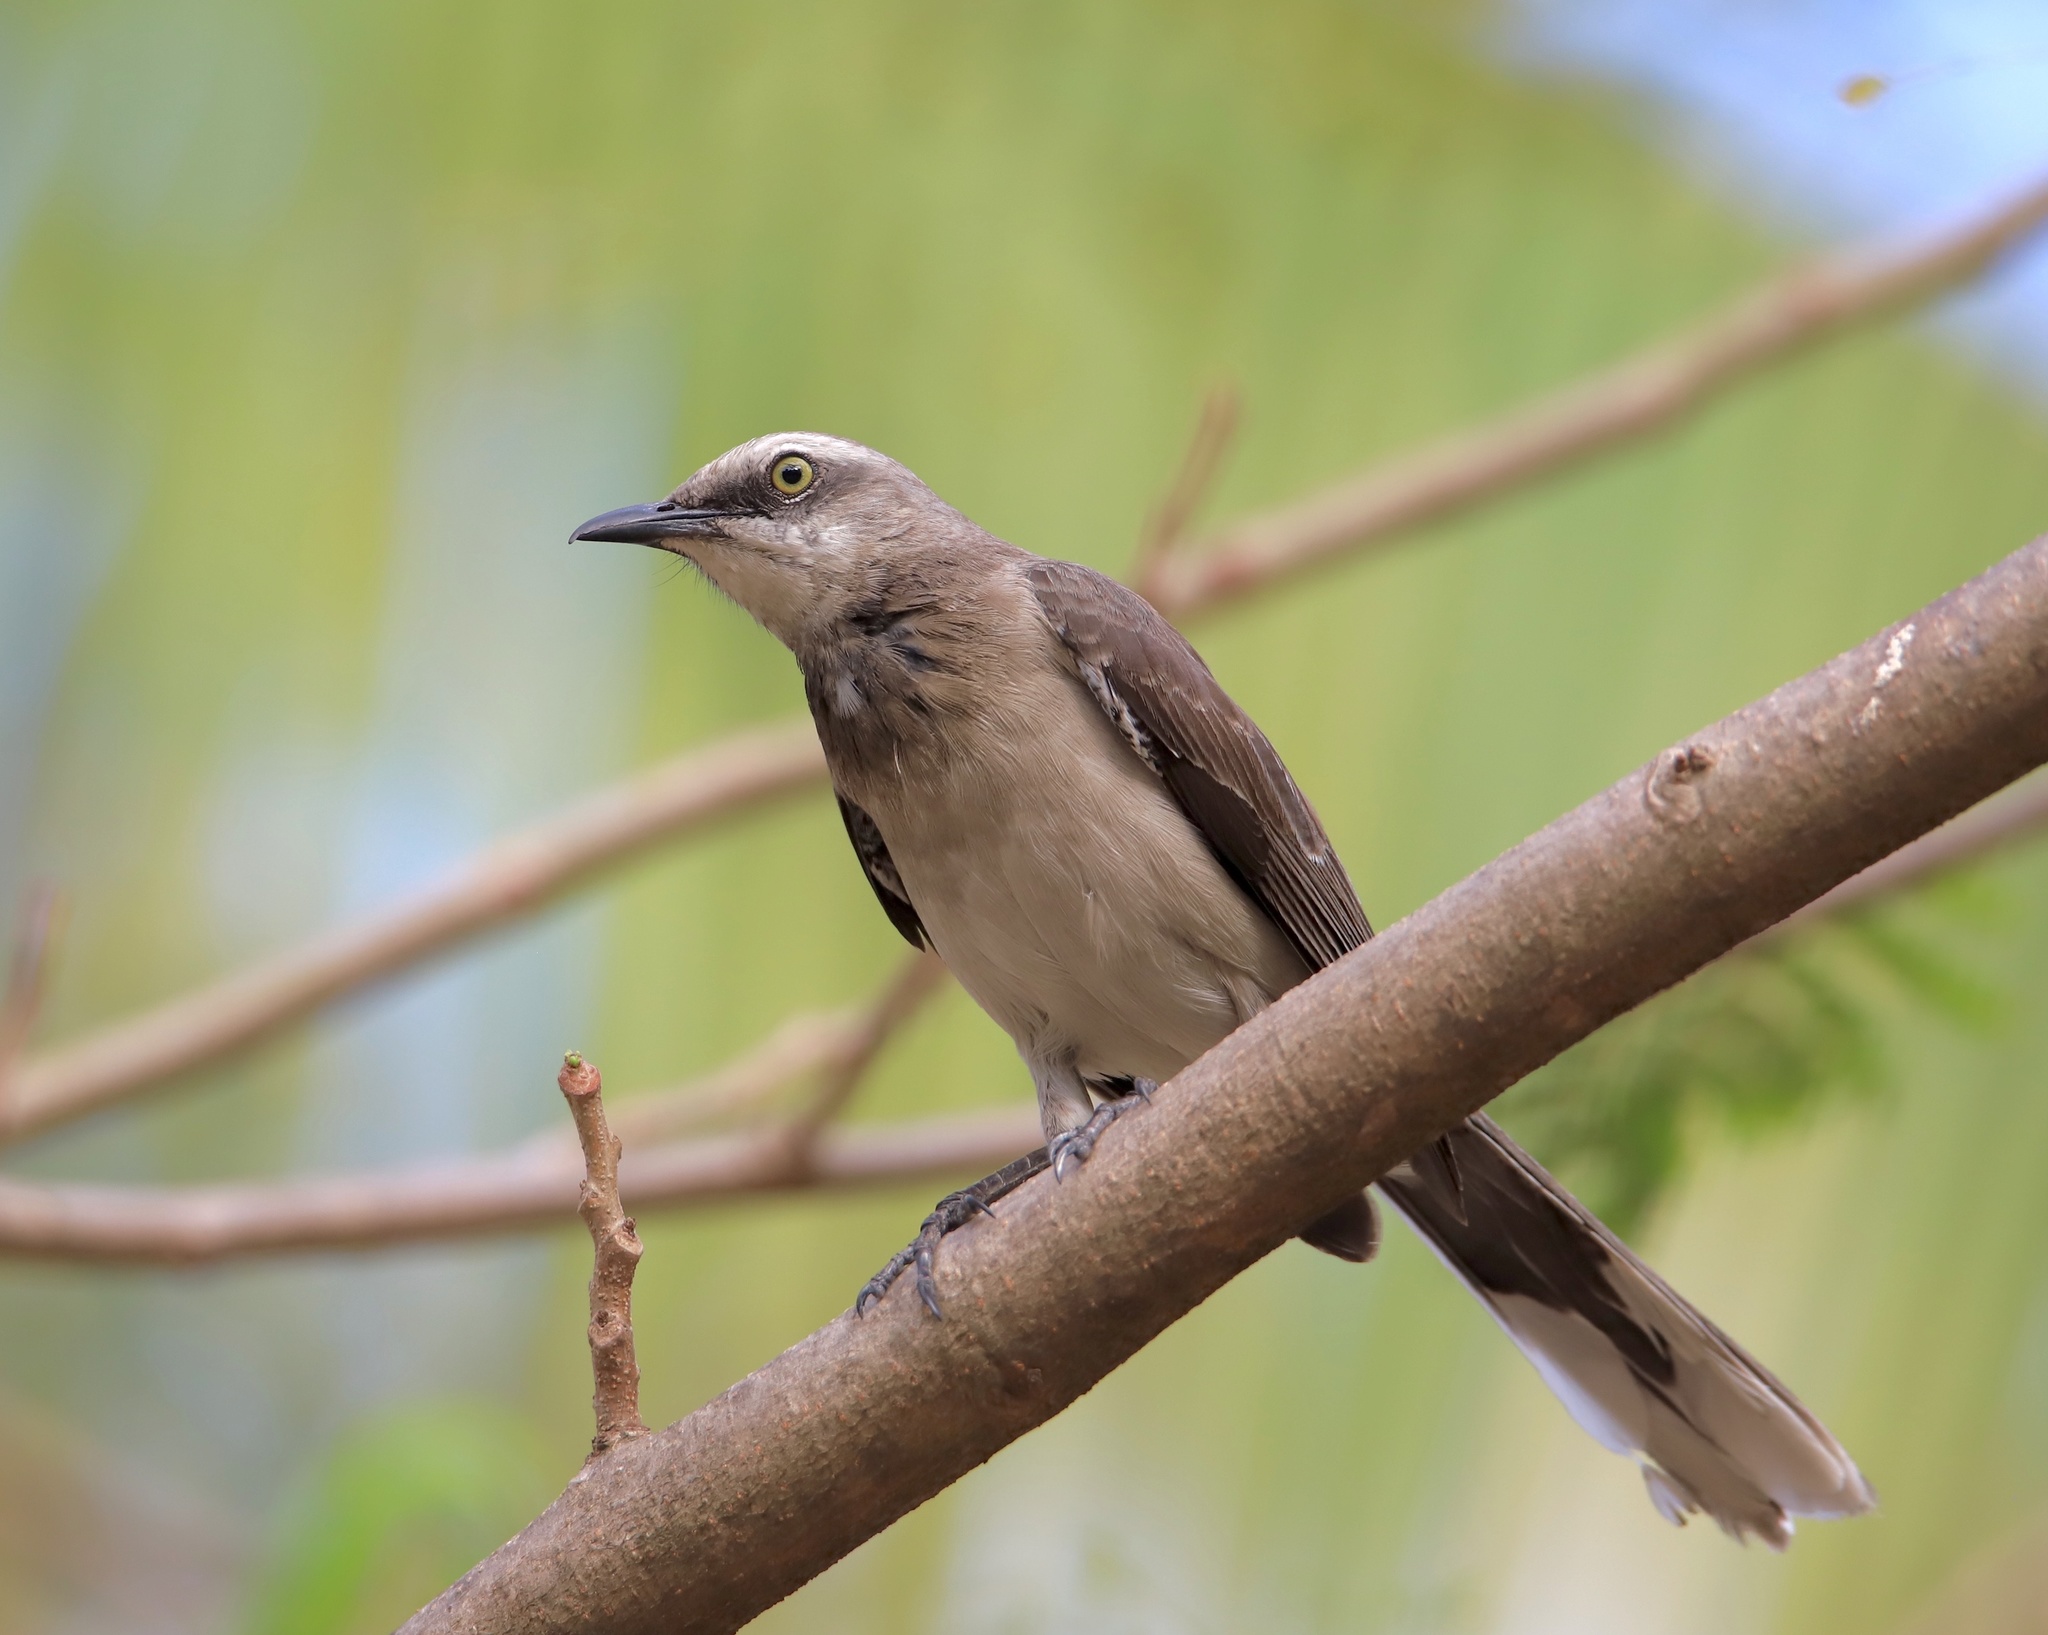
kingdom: Animalia
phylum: Chordata
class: Aves
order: Passeriformes
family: Mimidae
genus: Mimus
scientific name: Mimus gilvus
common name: Tropical mockingbird
